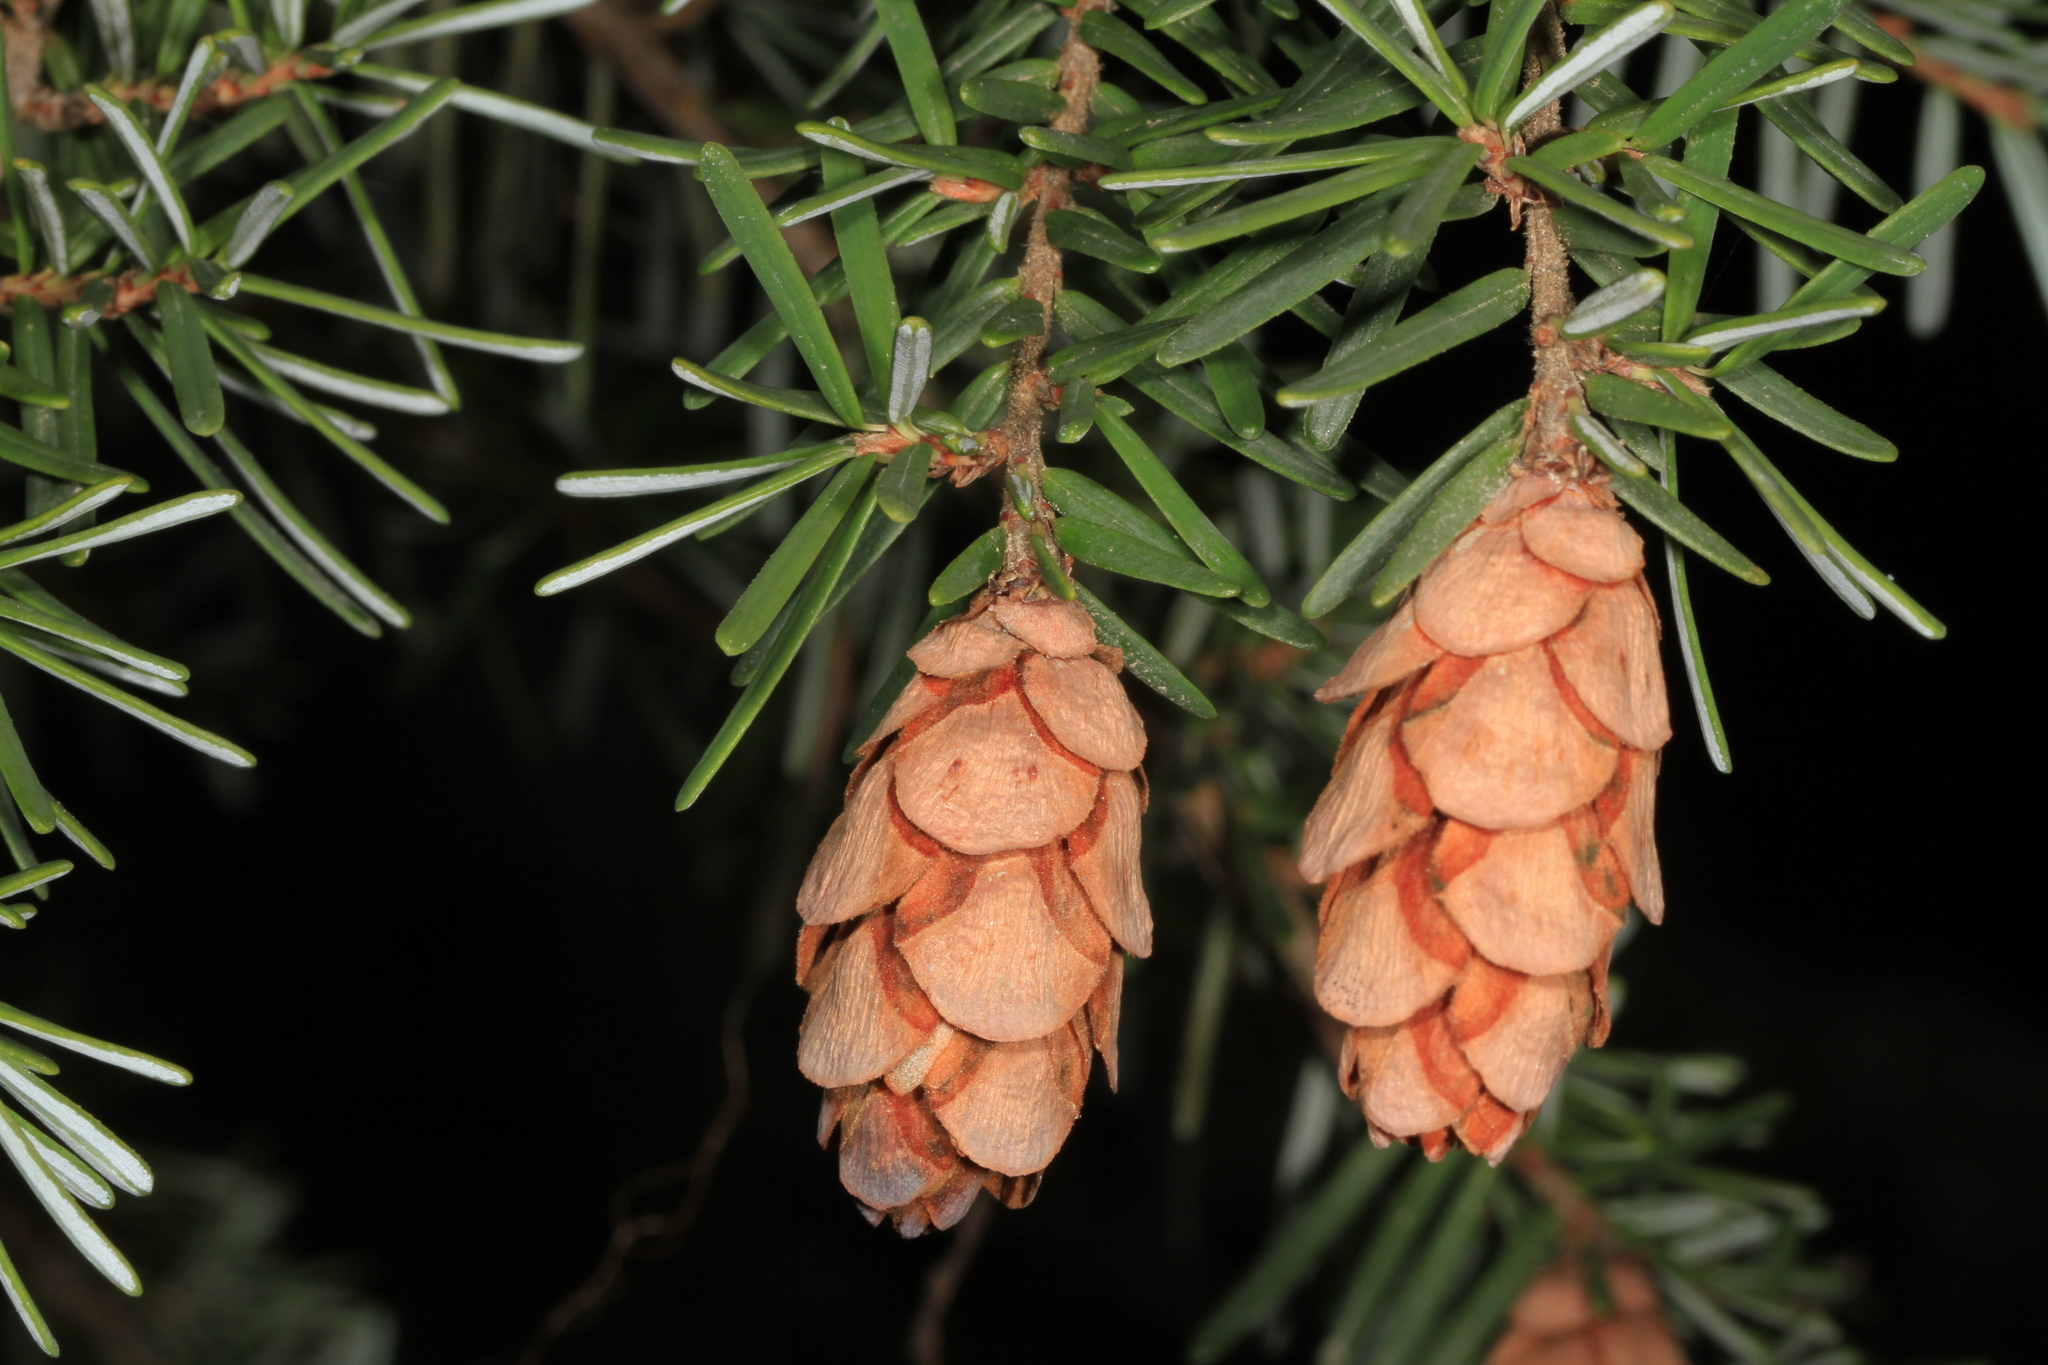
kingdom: Plantae
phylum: Tracheophyta
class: Pinopsida
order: Pinales
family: Pinaceae
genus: Tsuga
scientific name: Tsuga heterophylla
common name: Western hemlock
